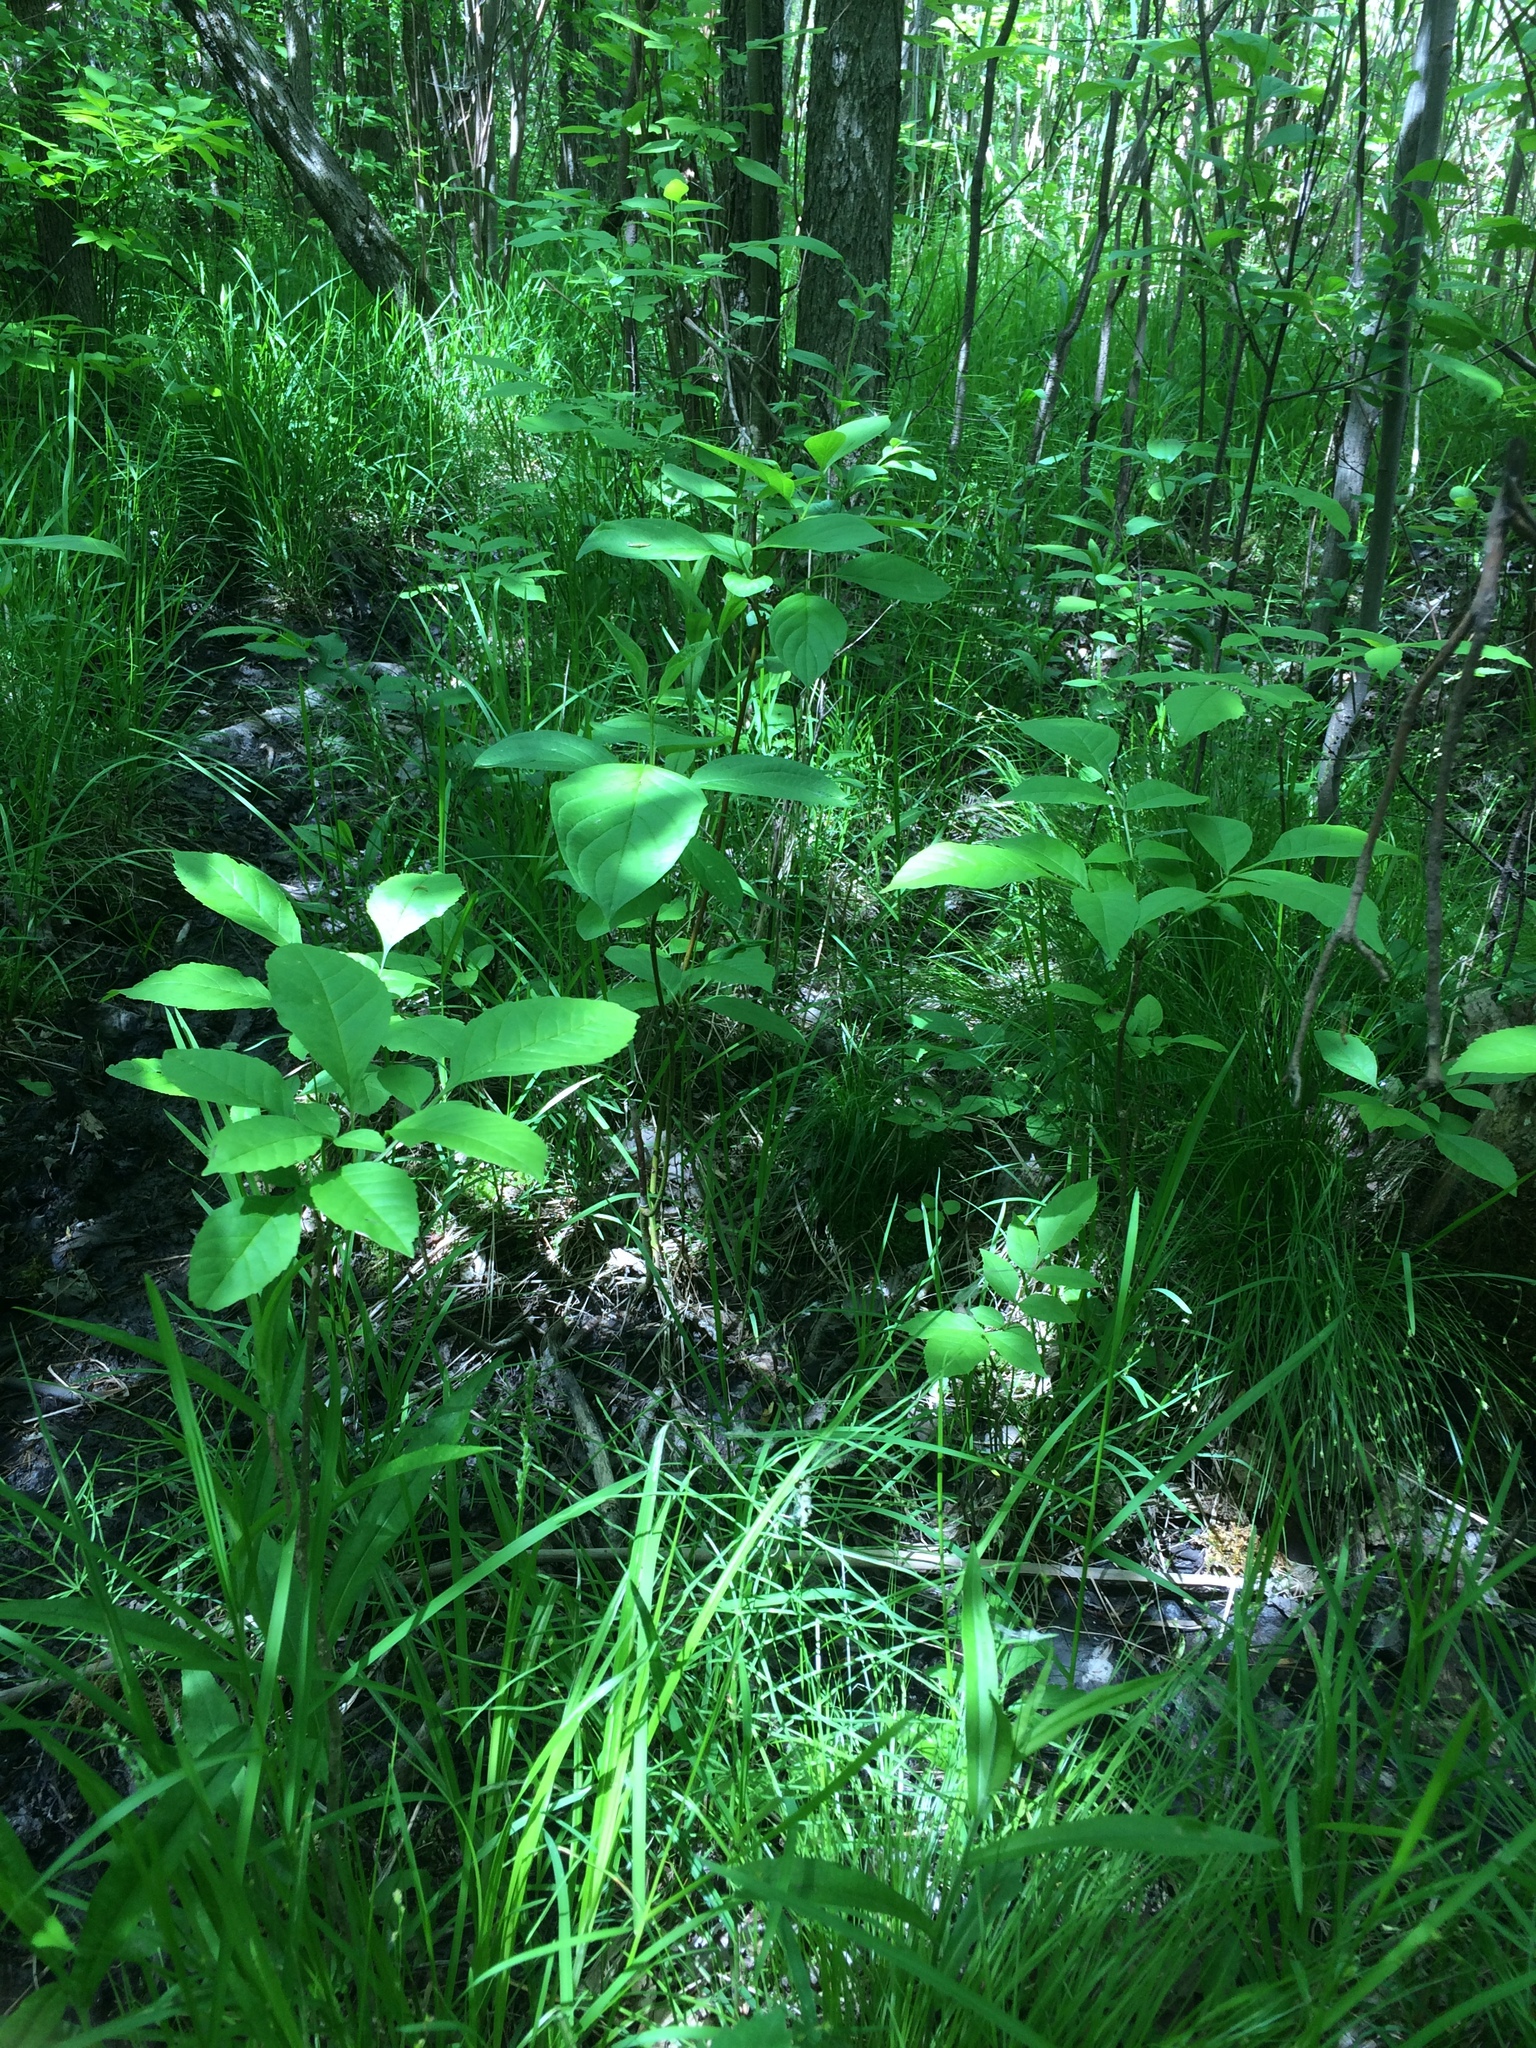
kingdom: Plantae
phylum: Tracheophyta
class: Liliopsida
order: Poales
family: Cyperaceae
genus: Carex
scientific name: Carex radiata
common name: Eastern star sedge
